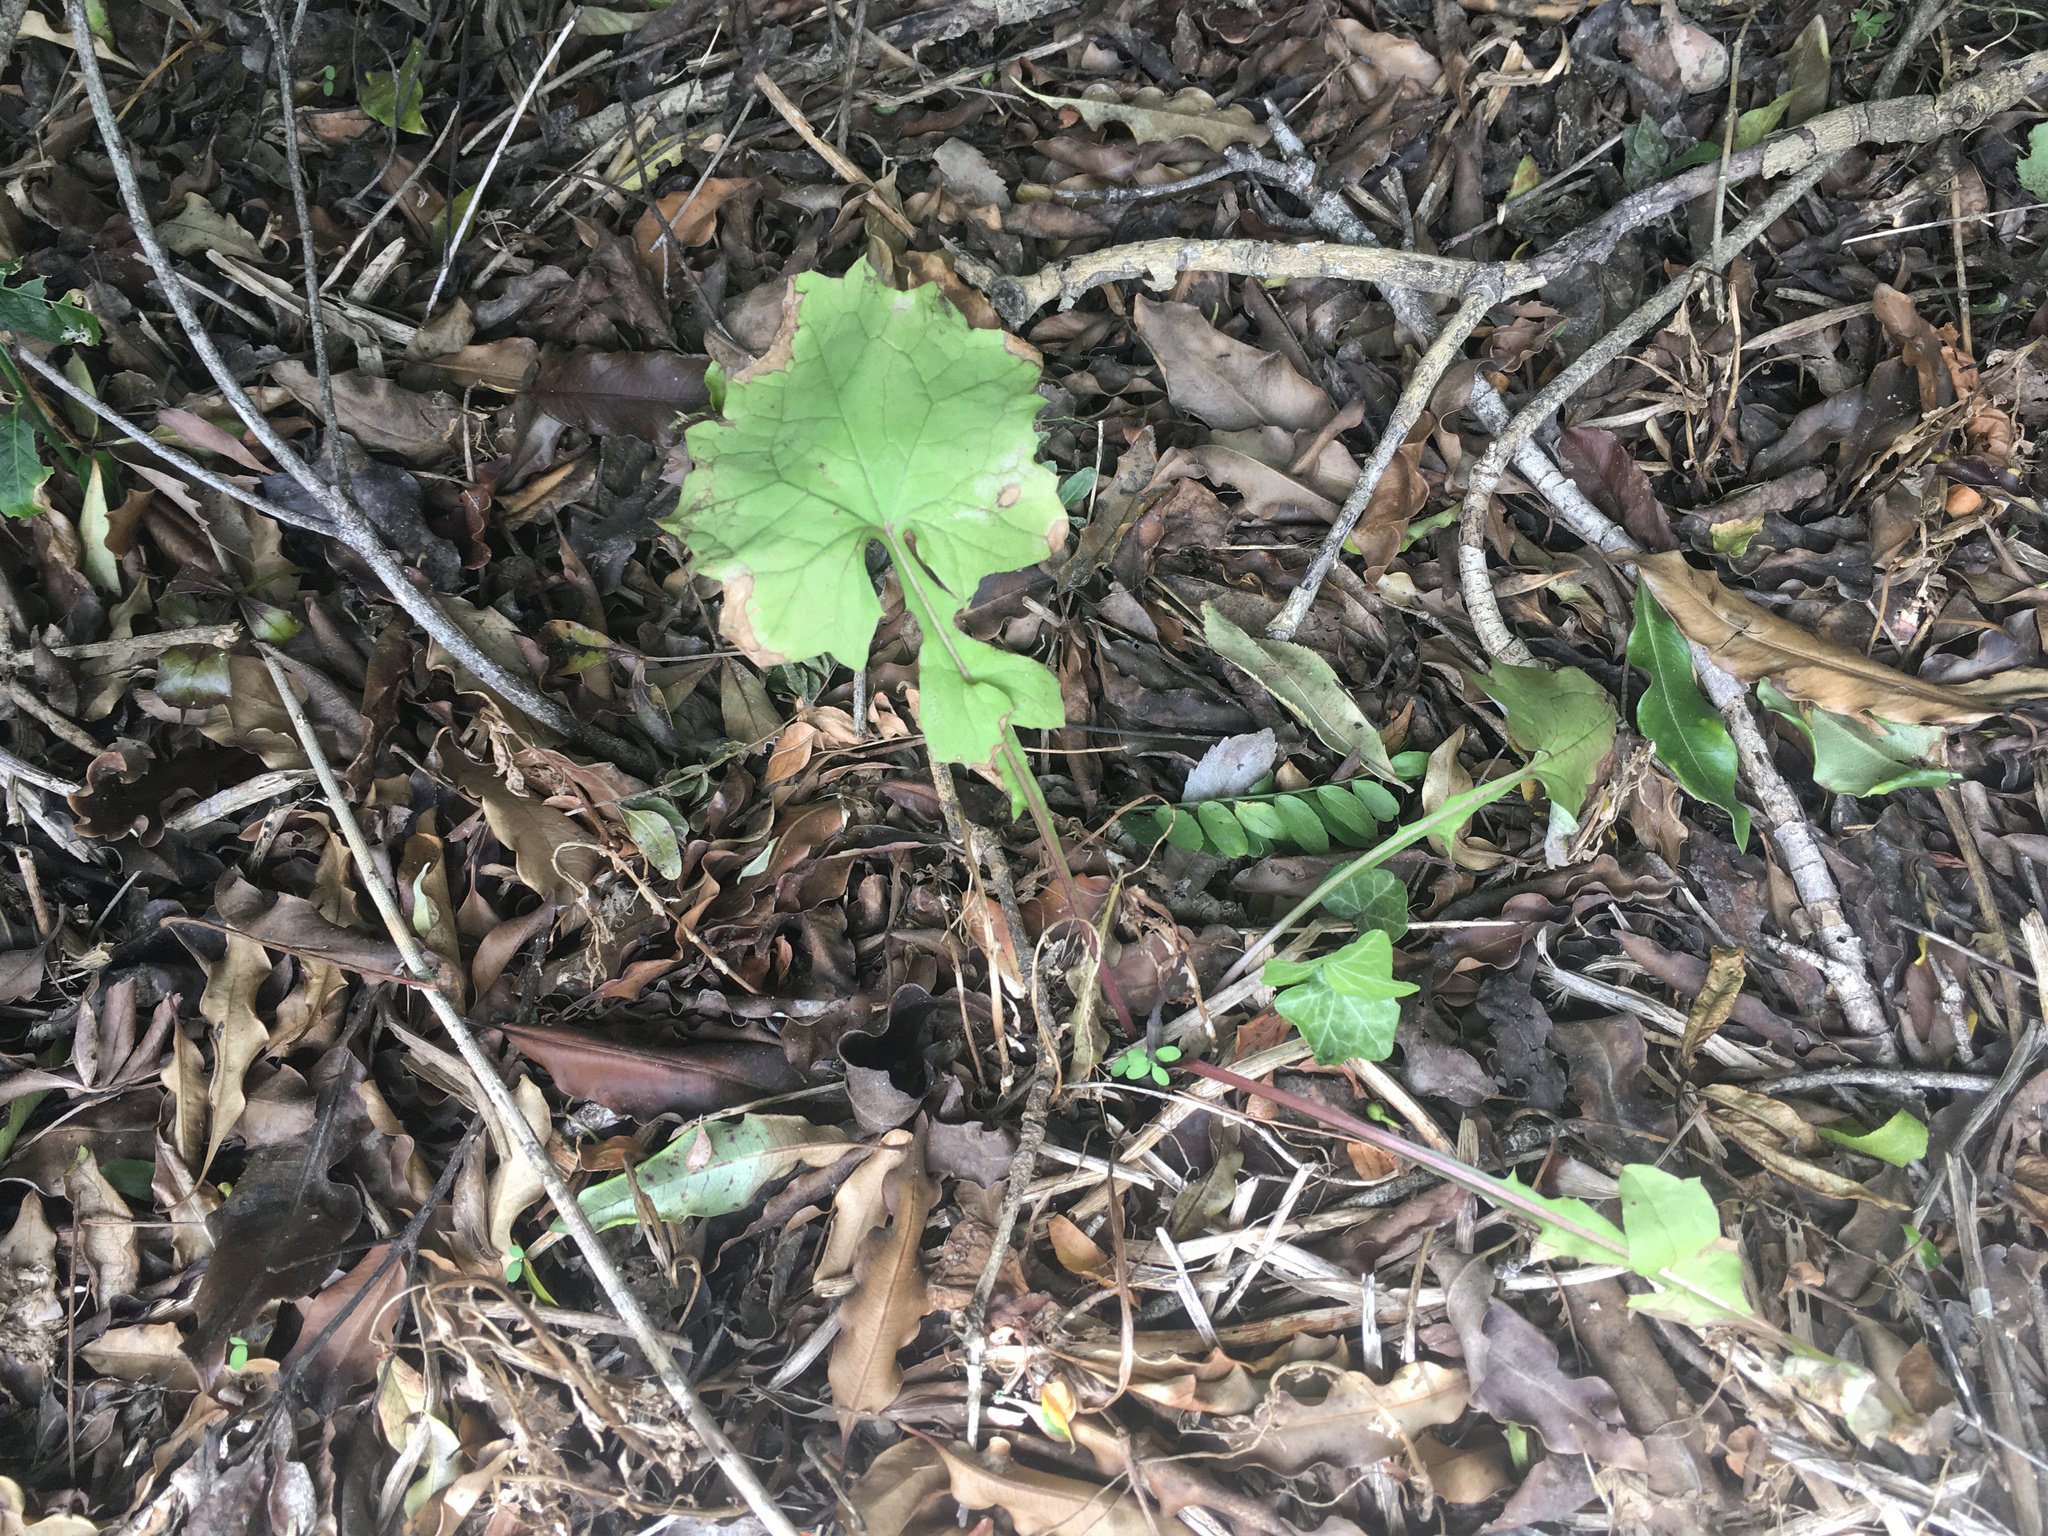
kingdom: Plantae
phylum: Tracheophyta
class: Magnoliopsida
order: Asterales
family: Asteraceae
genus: Mycelis
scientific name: Mycelis muralis
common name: Wall lettuce
